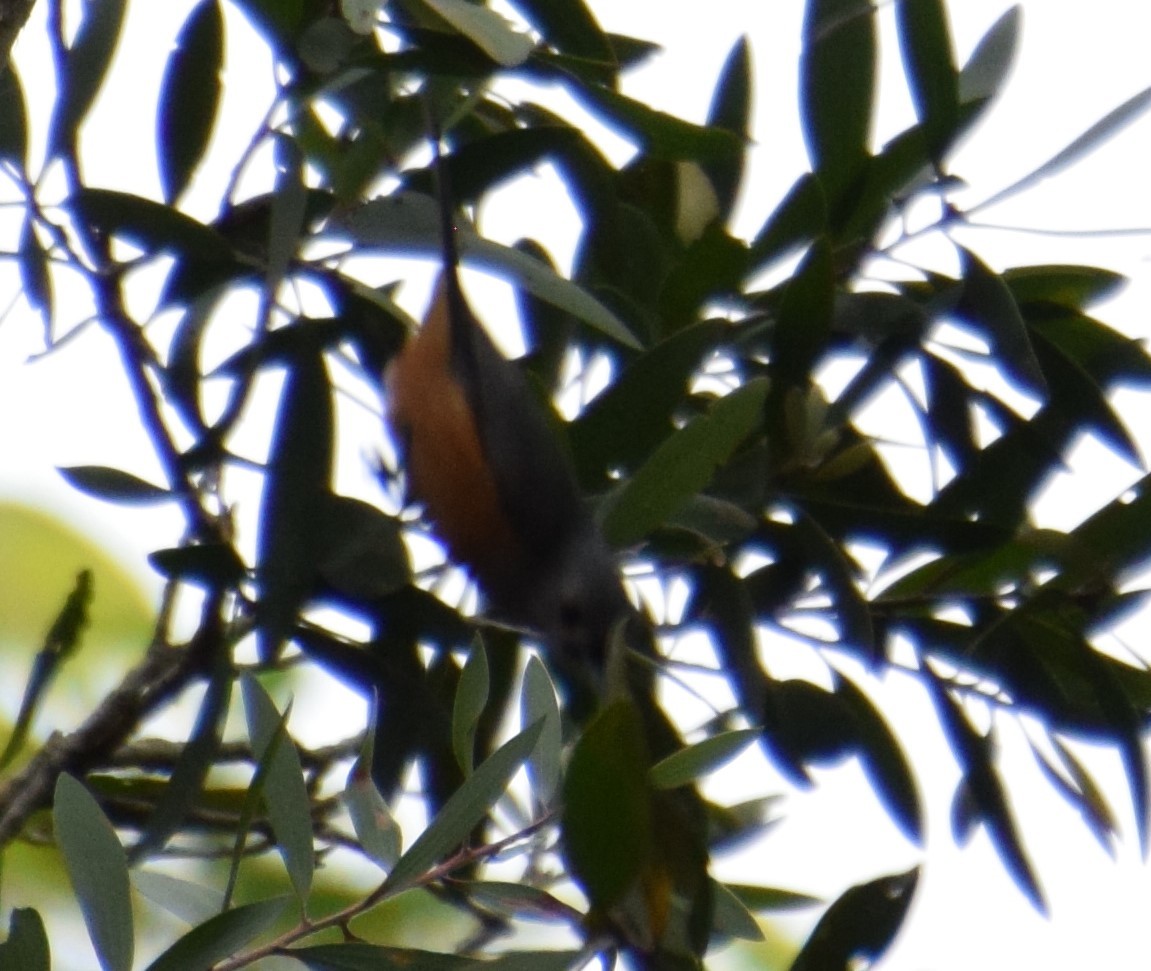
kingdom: Animalia
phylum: Chordata
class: Aves
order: Passeriformes
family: Monarchidae
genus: Monarcha
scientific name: Monarcha melanopsis
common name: Black-faced monarch
